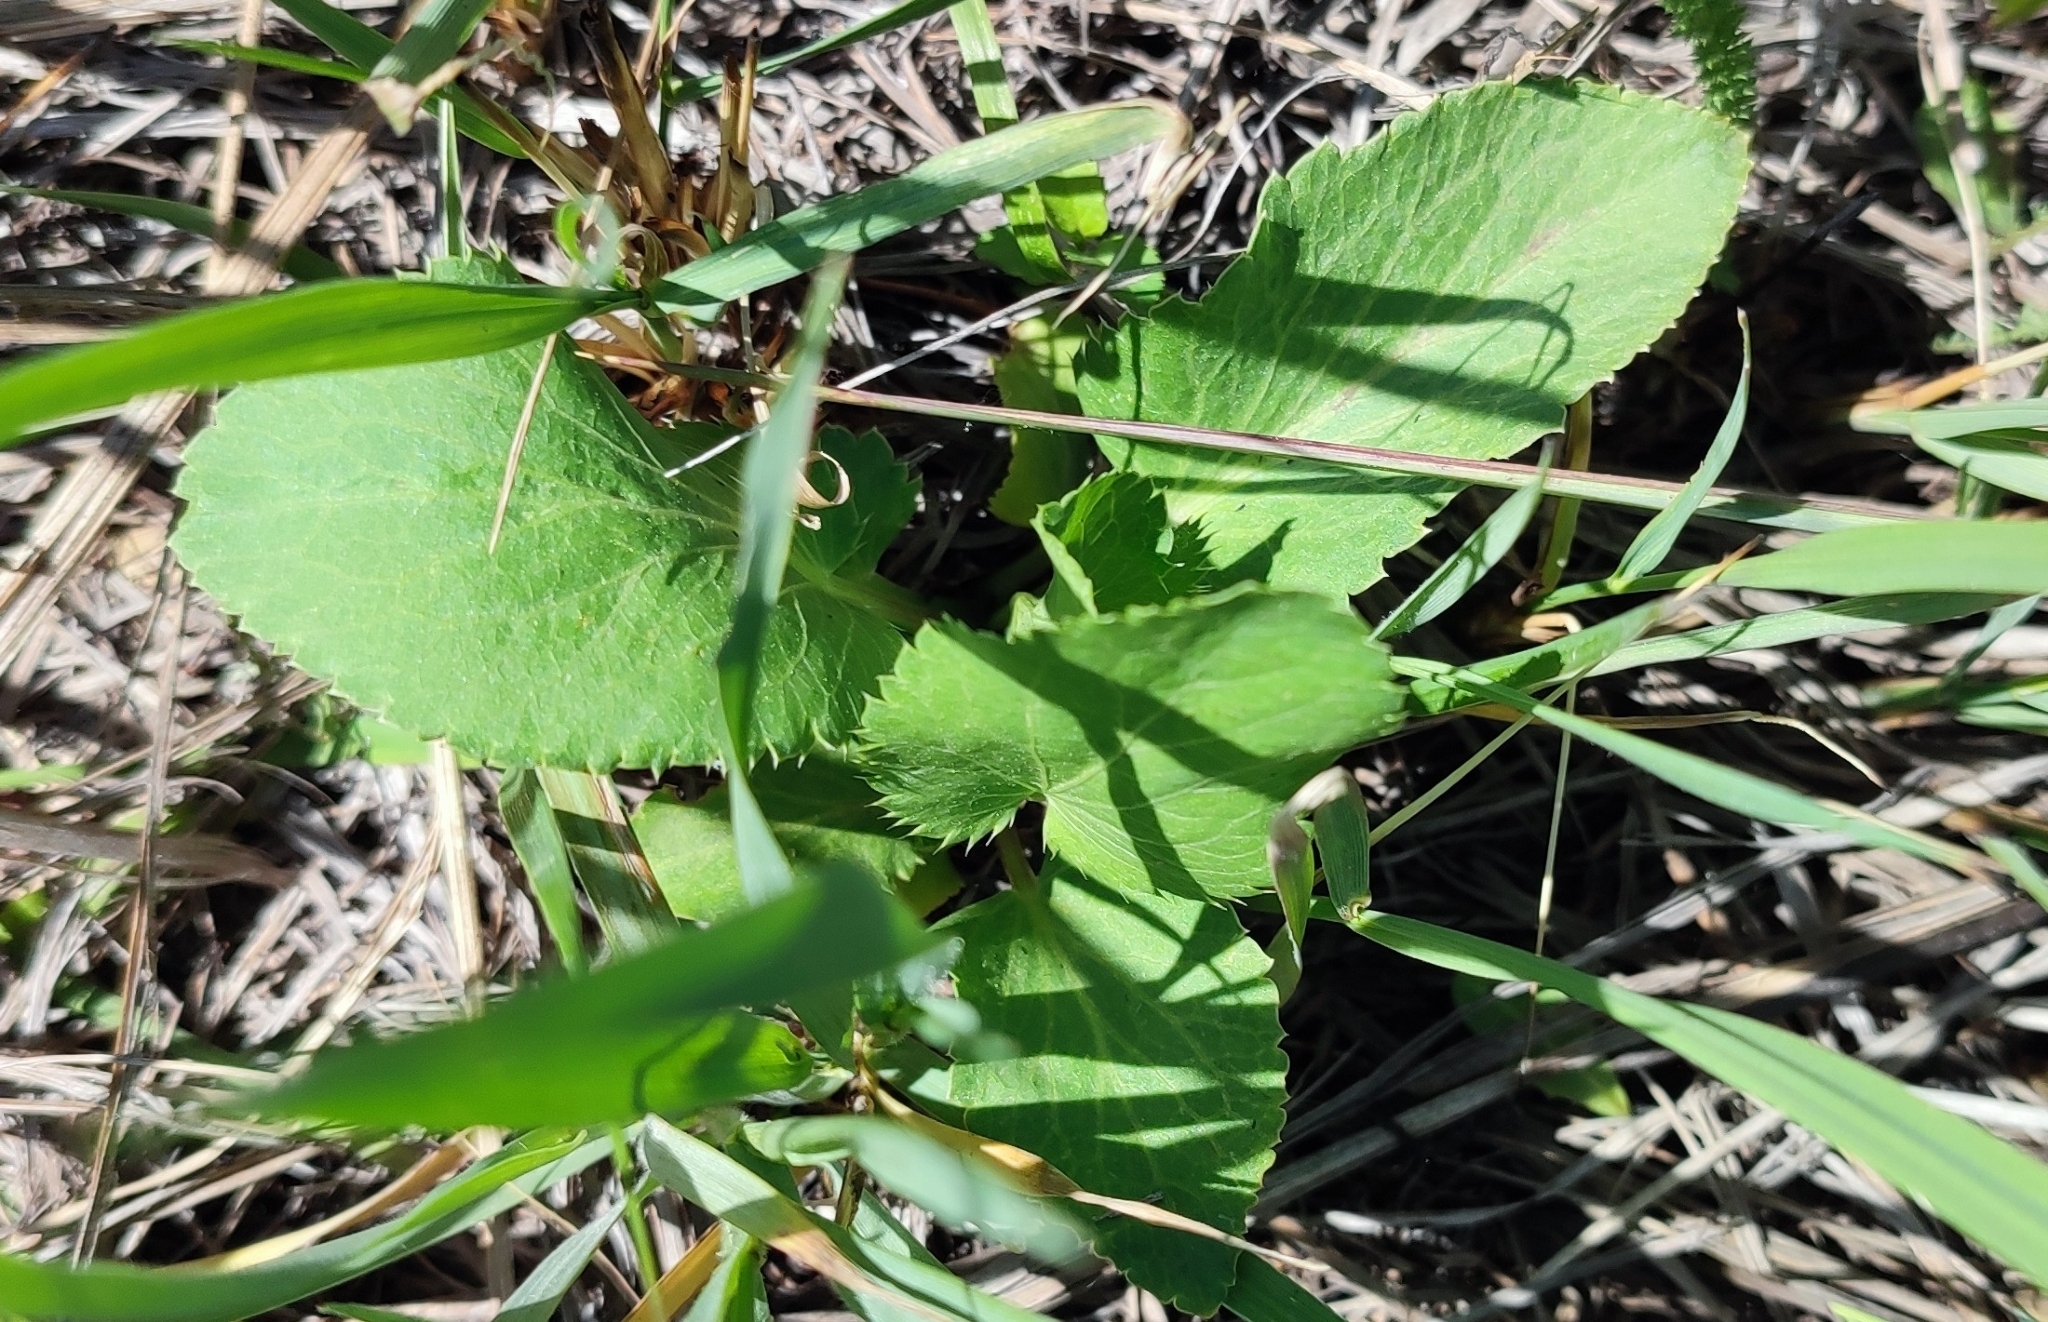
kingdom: Plantae
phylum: Tracheophyta
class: Magnoliopsida
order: Apiales
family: Apiaceae
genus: Eryngium
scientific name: Eryngium planum
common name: Blue eryngo
